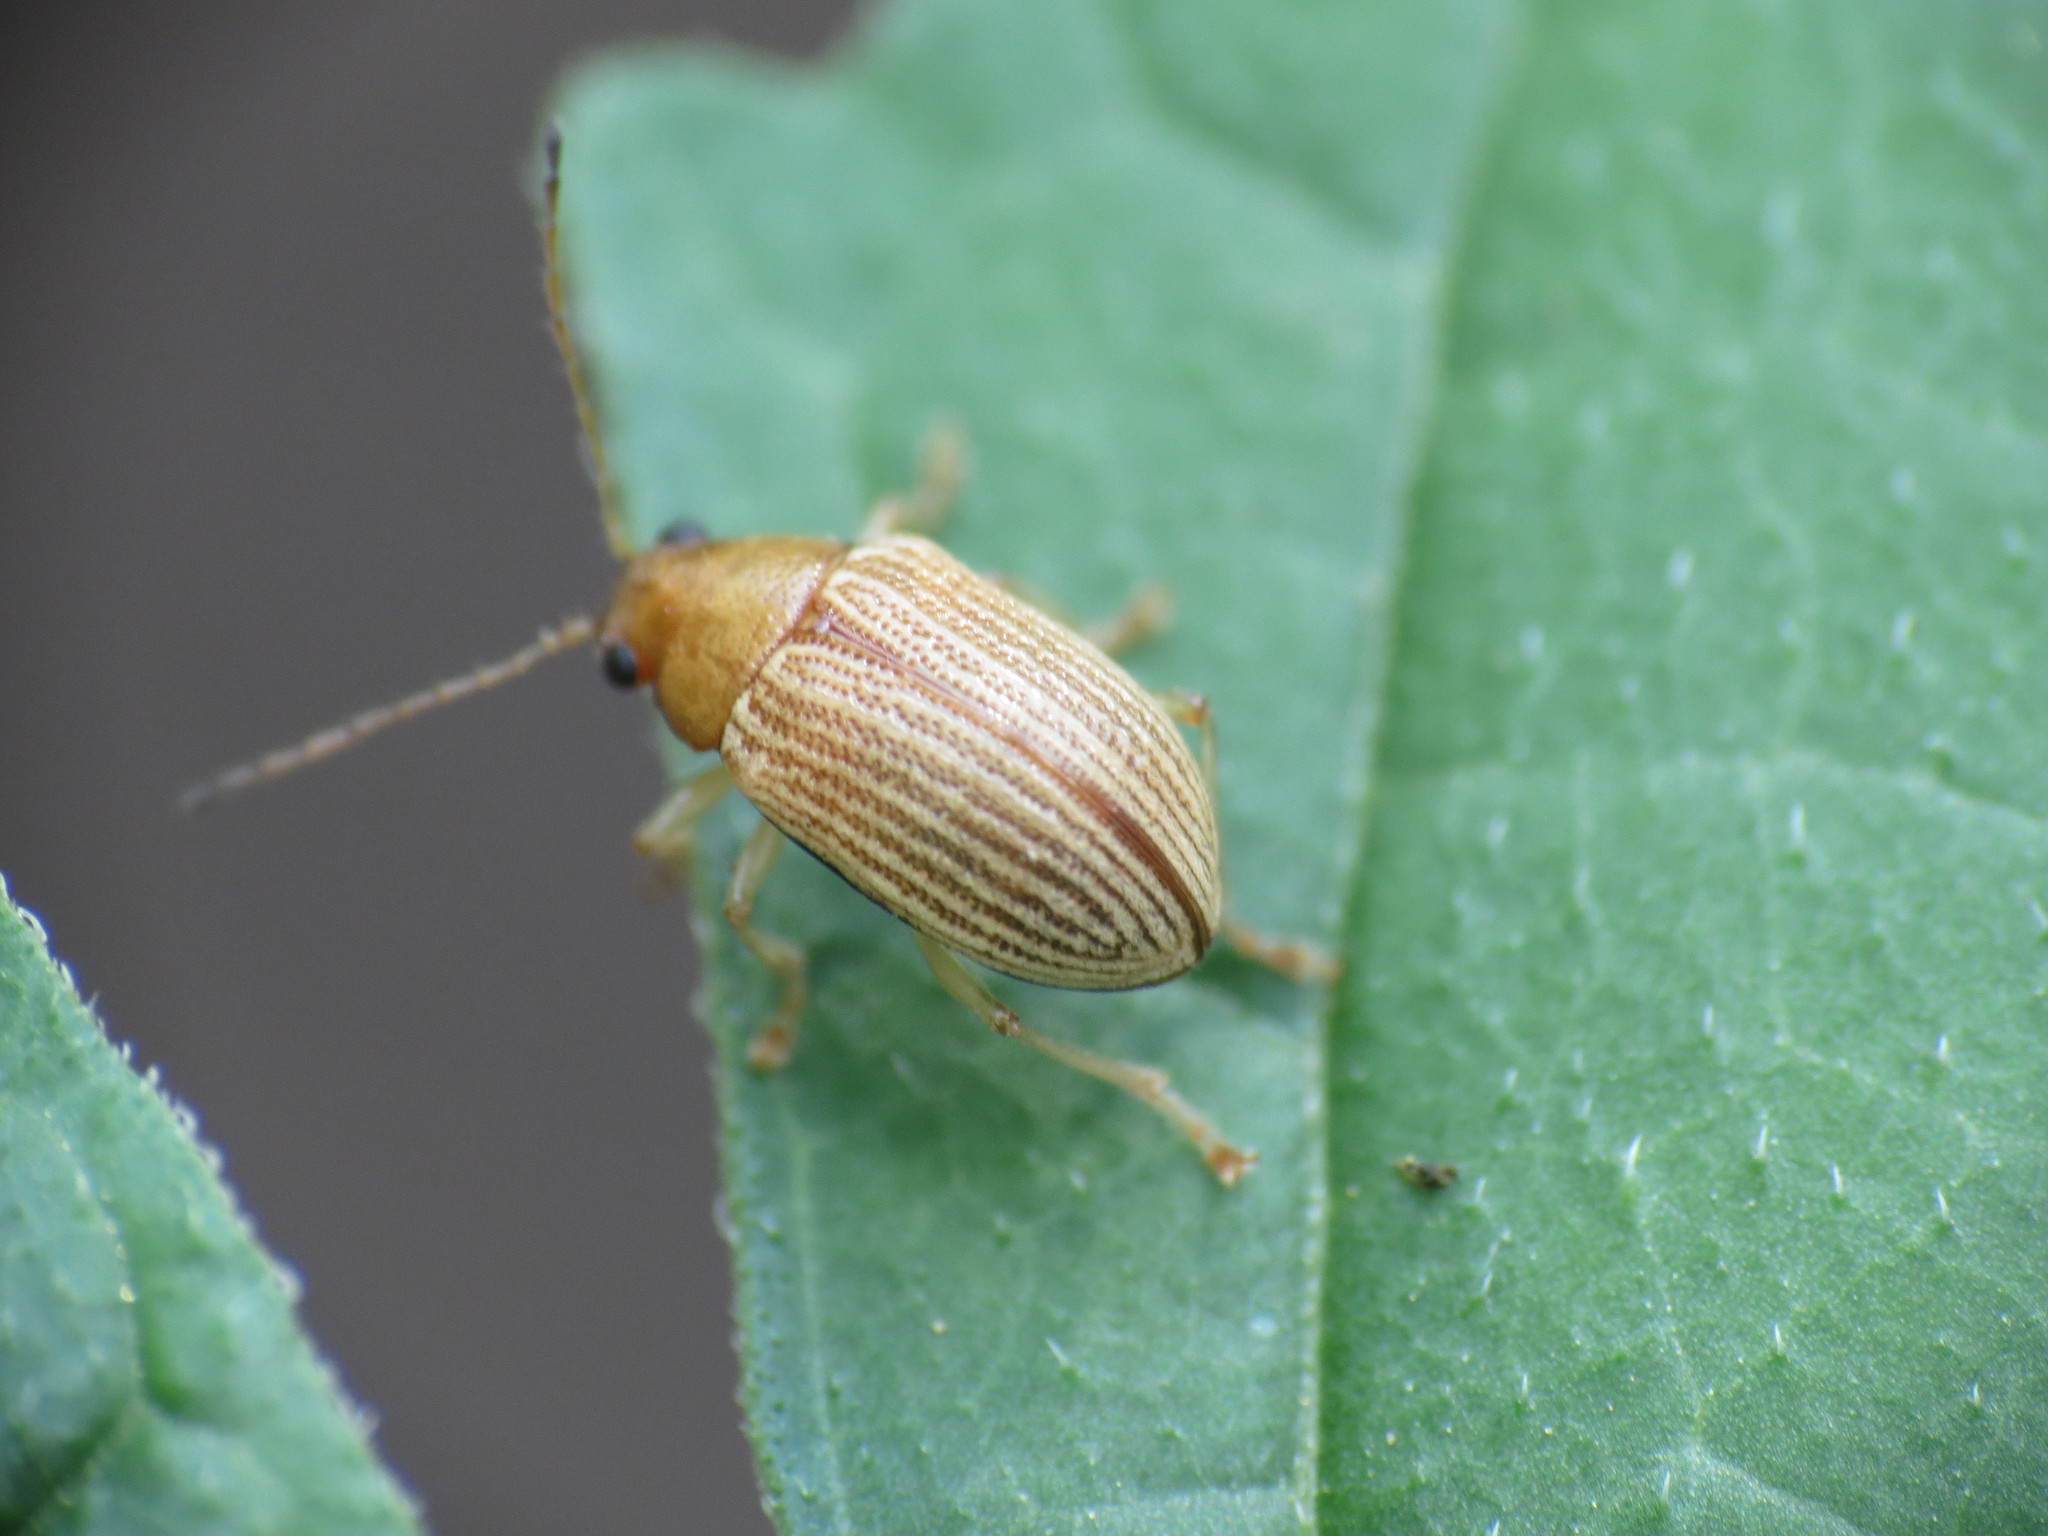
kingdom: Animalia
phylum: Arthropoda
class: Insecta
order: Coleoptera
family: Chrysomelidae
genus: Colaspis
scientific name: Colaspis brunnea
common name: Grape colaspis
